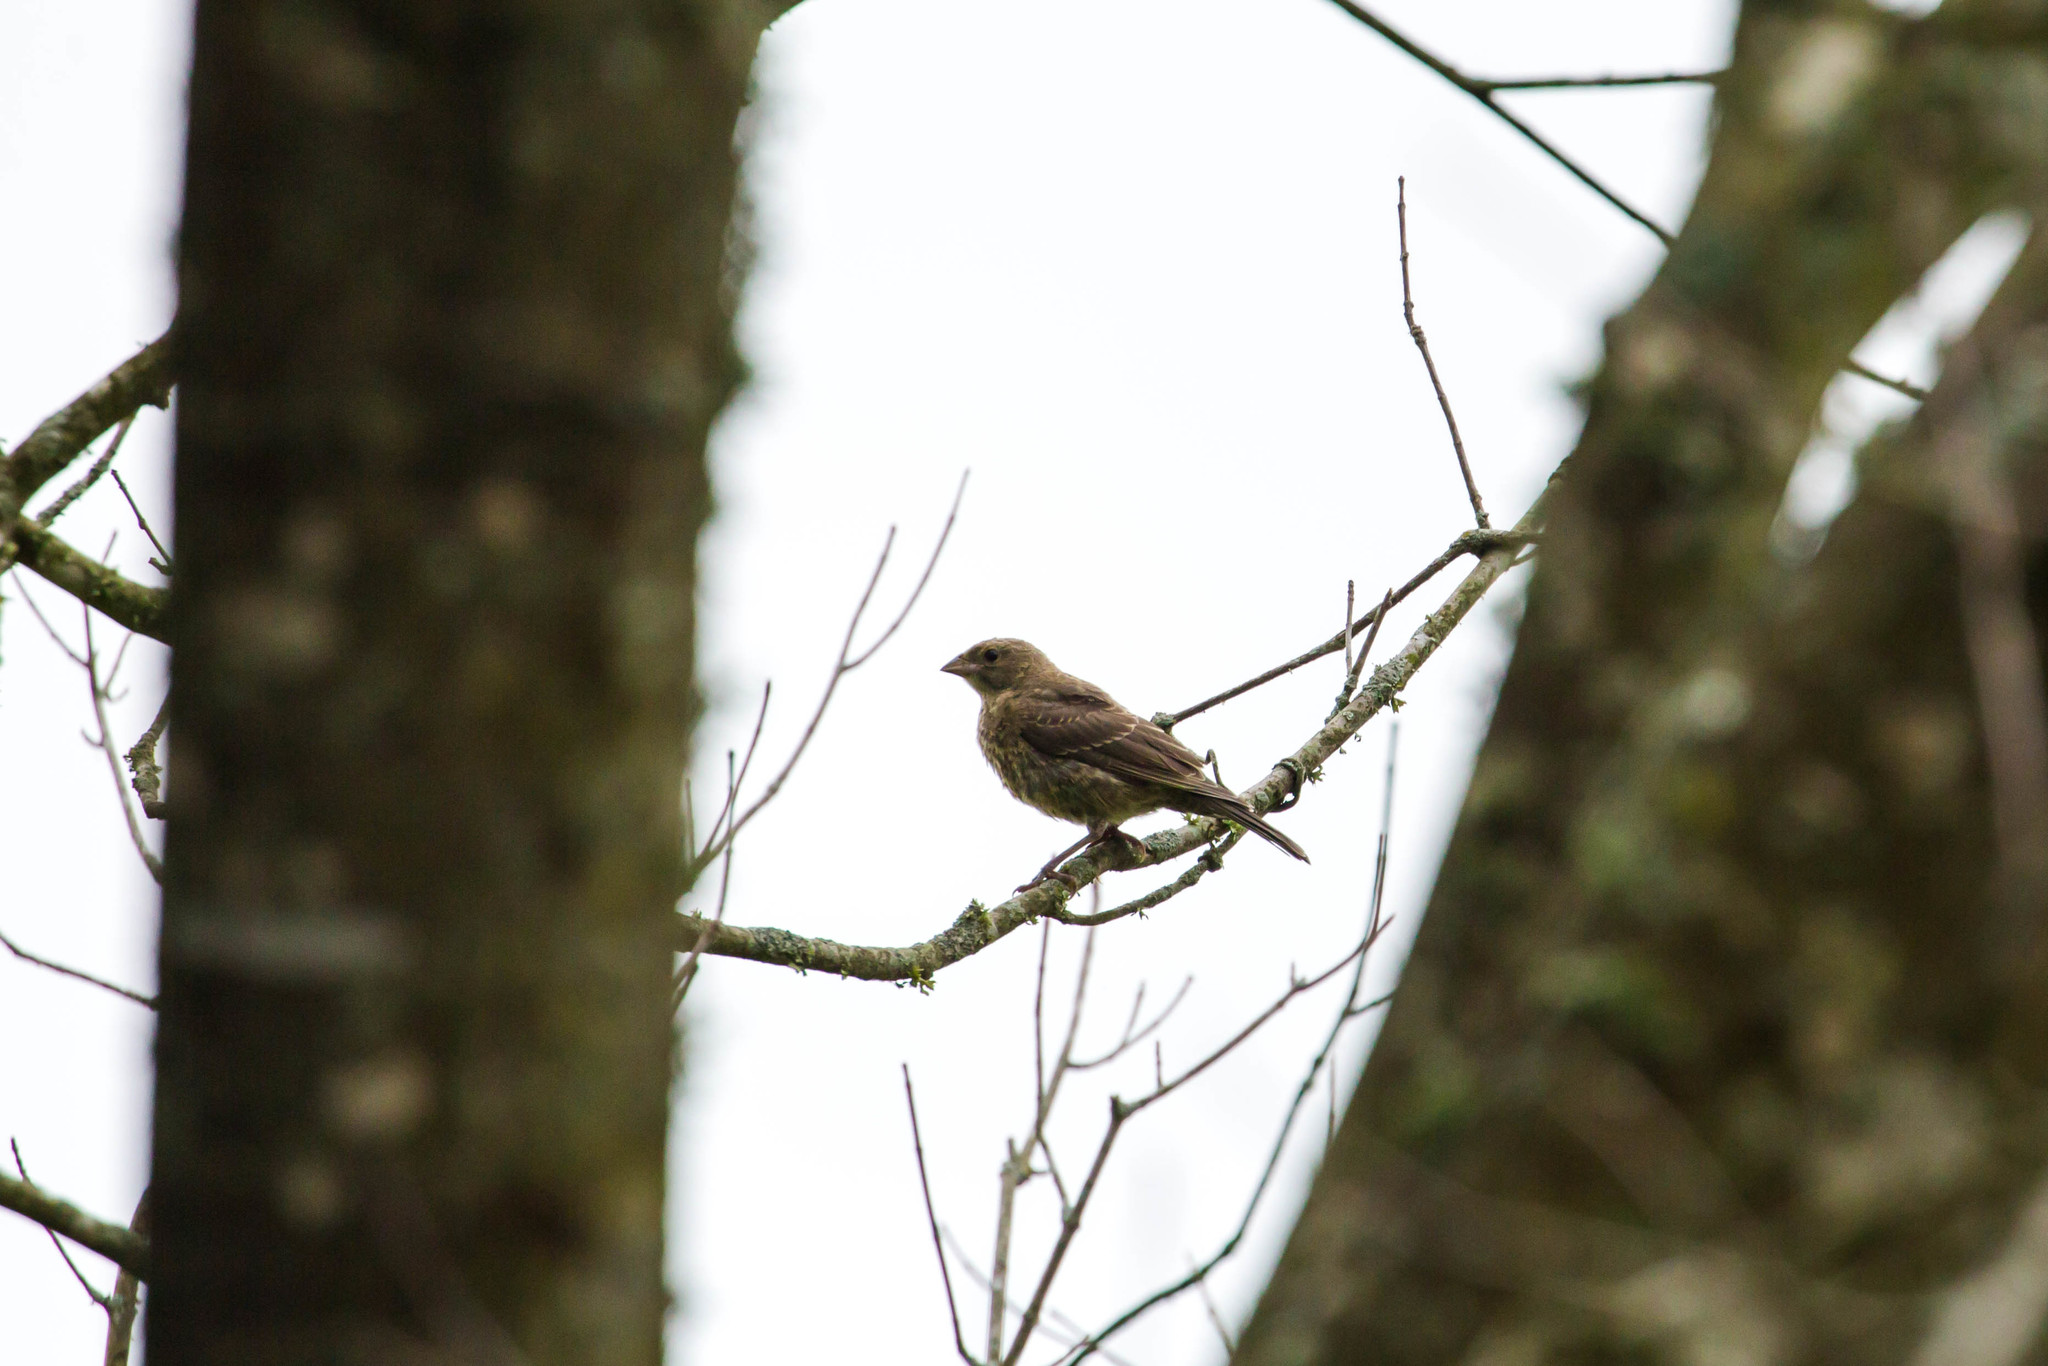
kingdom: Animalia
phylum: Chordata
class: Aves
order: Passeriformes
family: Fringillidae
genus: Haemorhous
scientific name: Haemorhous mexicanus
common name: House finch
